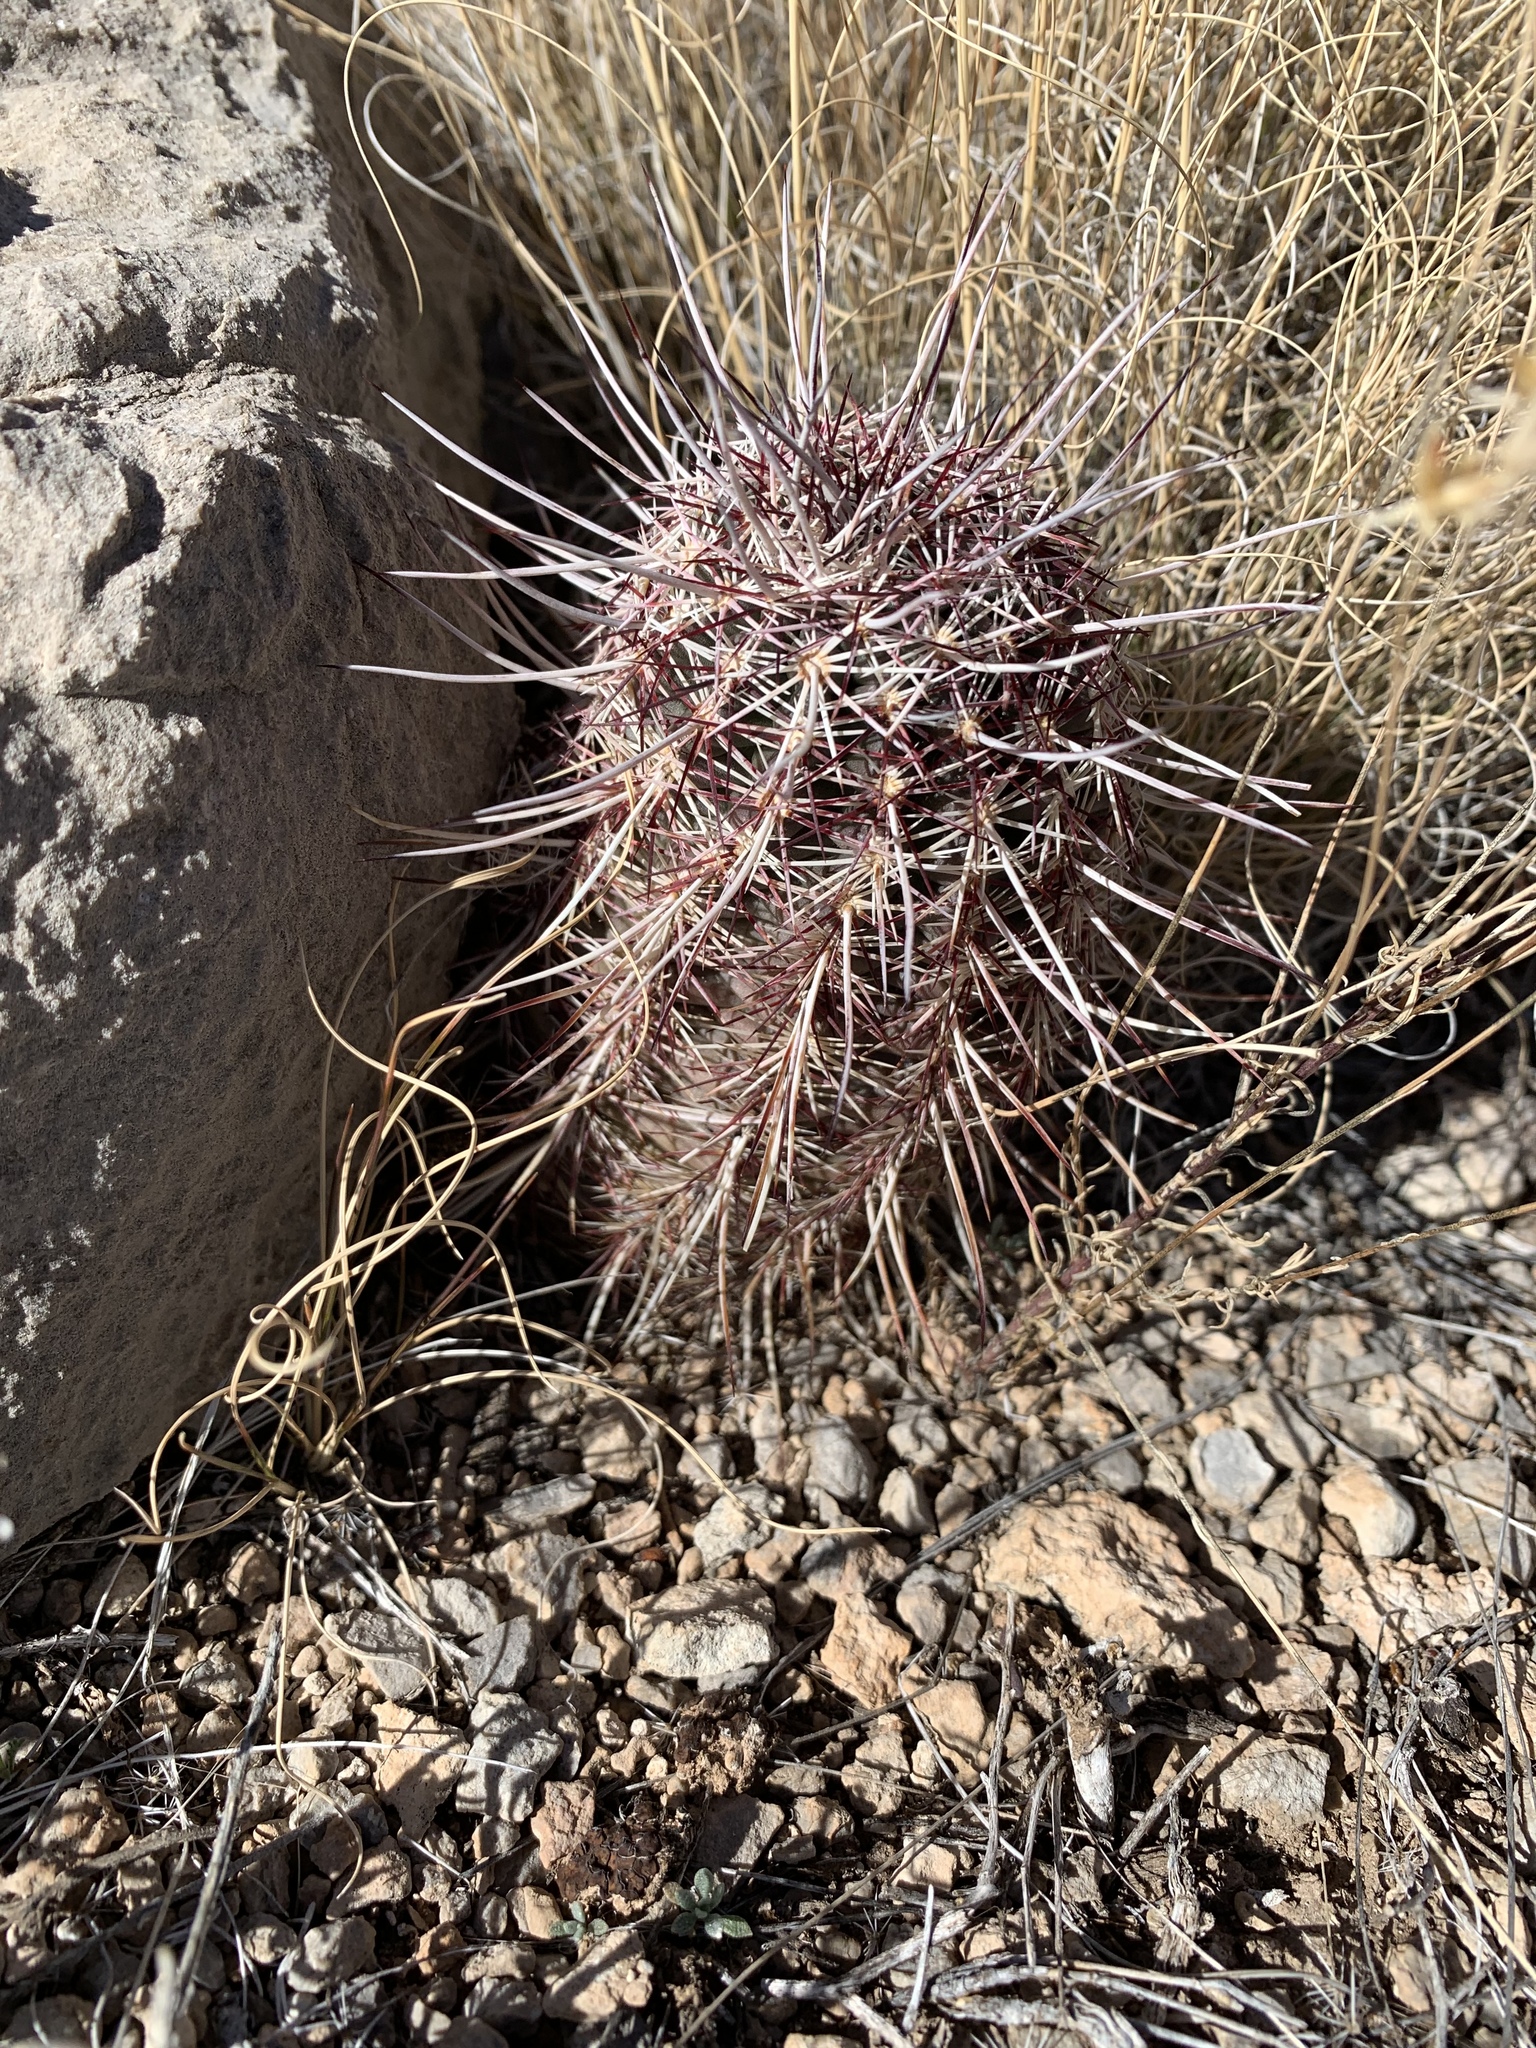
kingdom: Plantae
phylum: Tracheophyta
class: Magnoliopsida
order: Caryophyllales
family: Cactaceae
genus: Echinocereus
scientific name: Echinocereus viridiflorus
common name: Nylon hedgehog cactus
